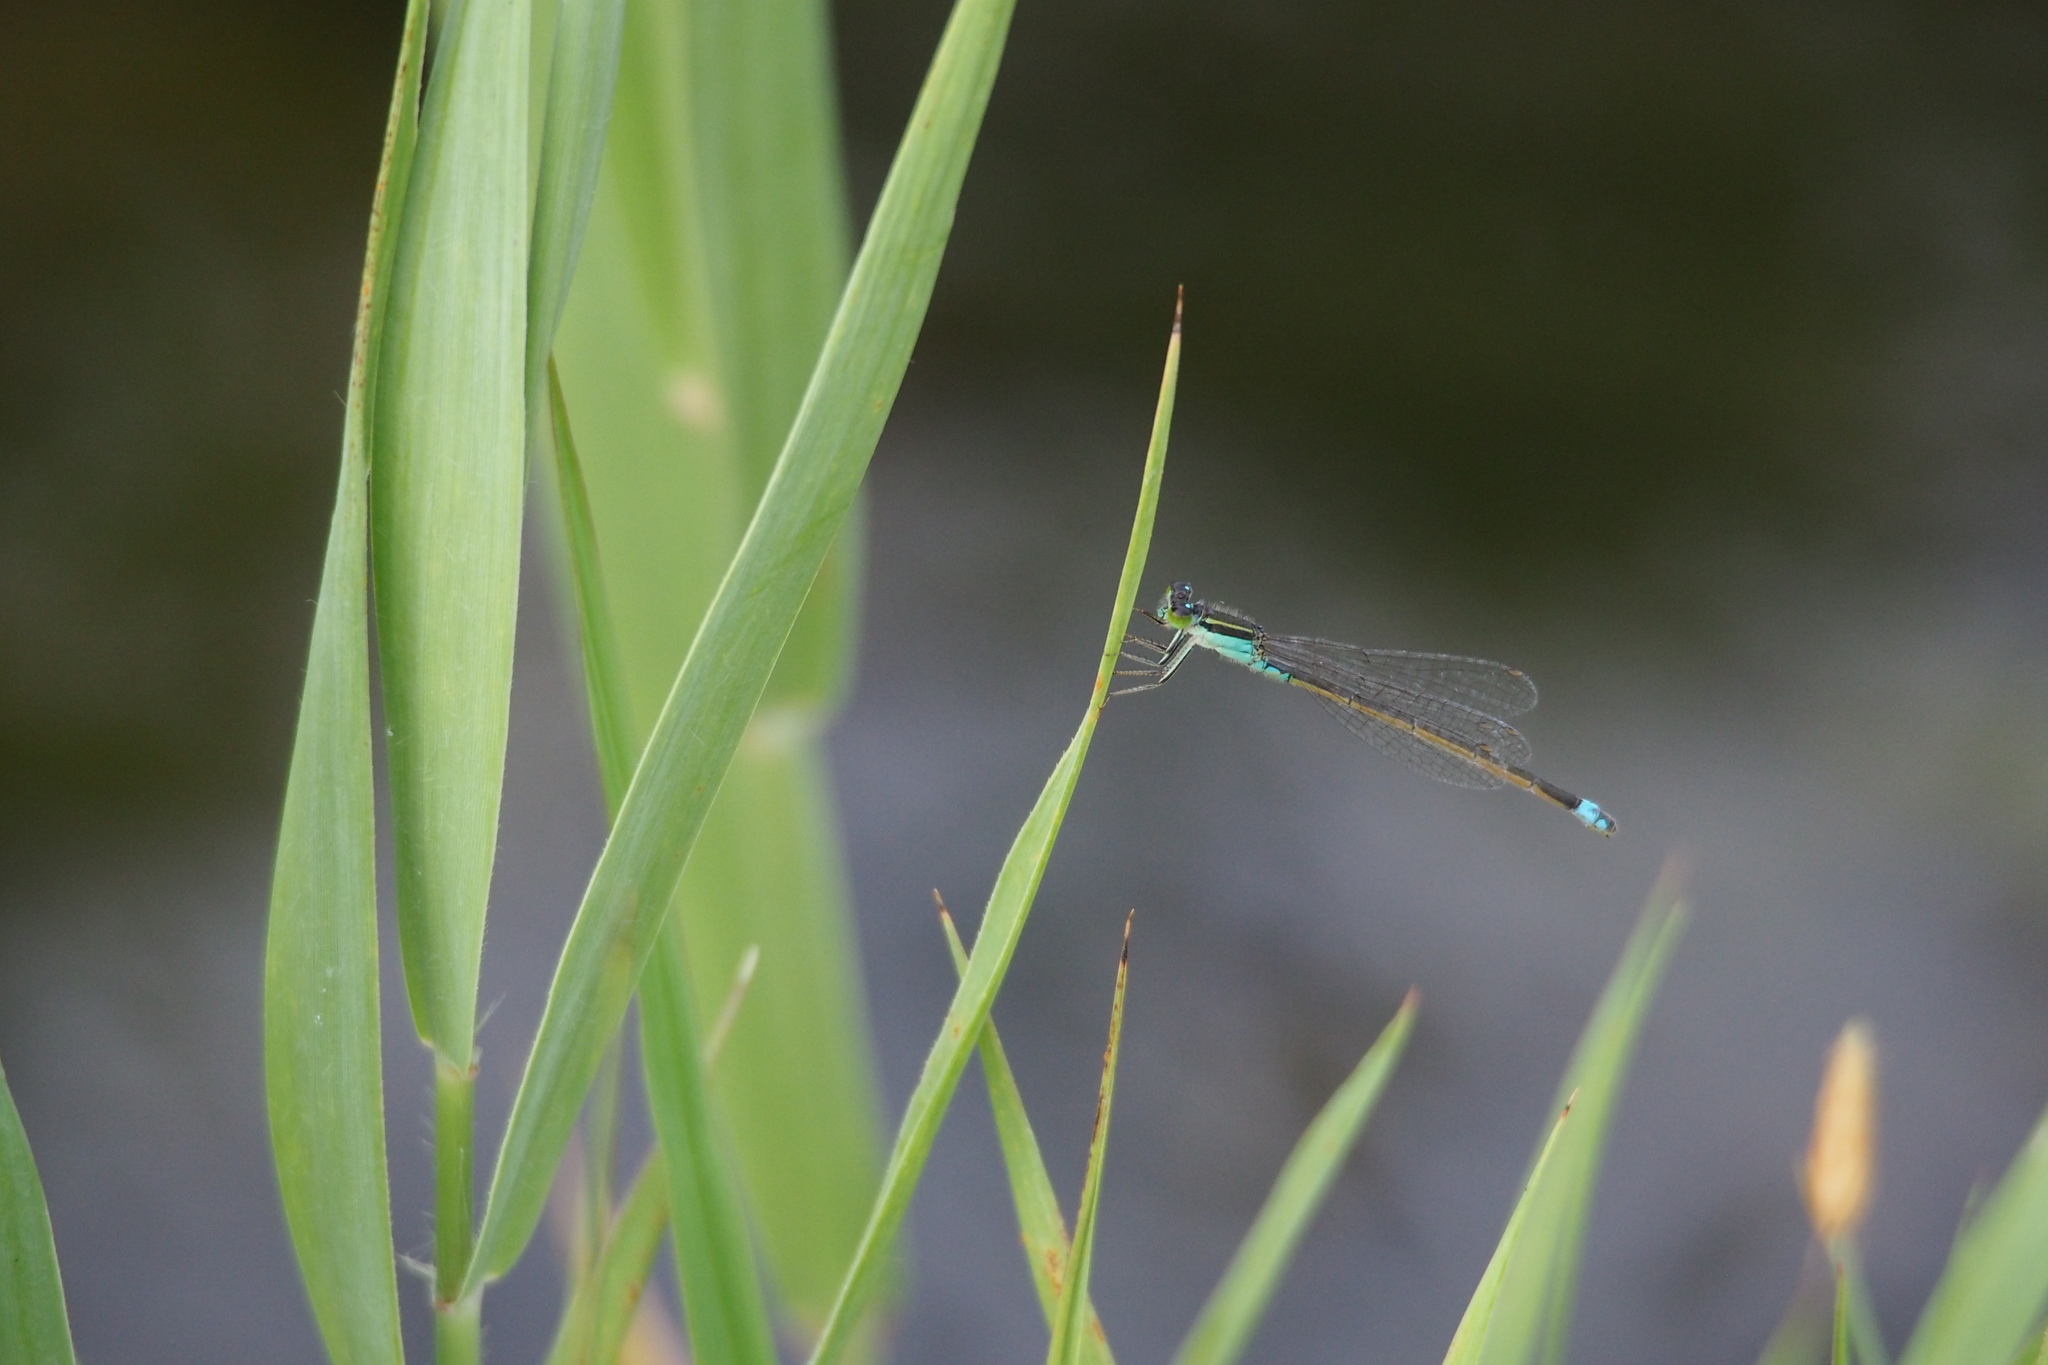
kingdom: Animalia
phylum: Arthropoda
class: Insecta
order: Odonata
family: Coenagrionidae
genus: Ischnura
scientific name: Ischnura senegalensis
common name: Tropical bluetail
